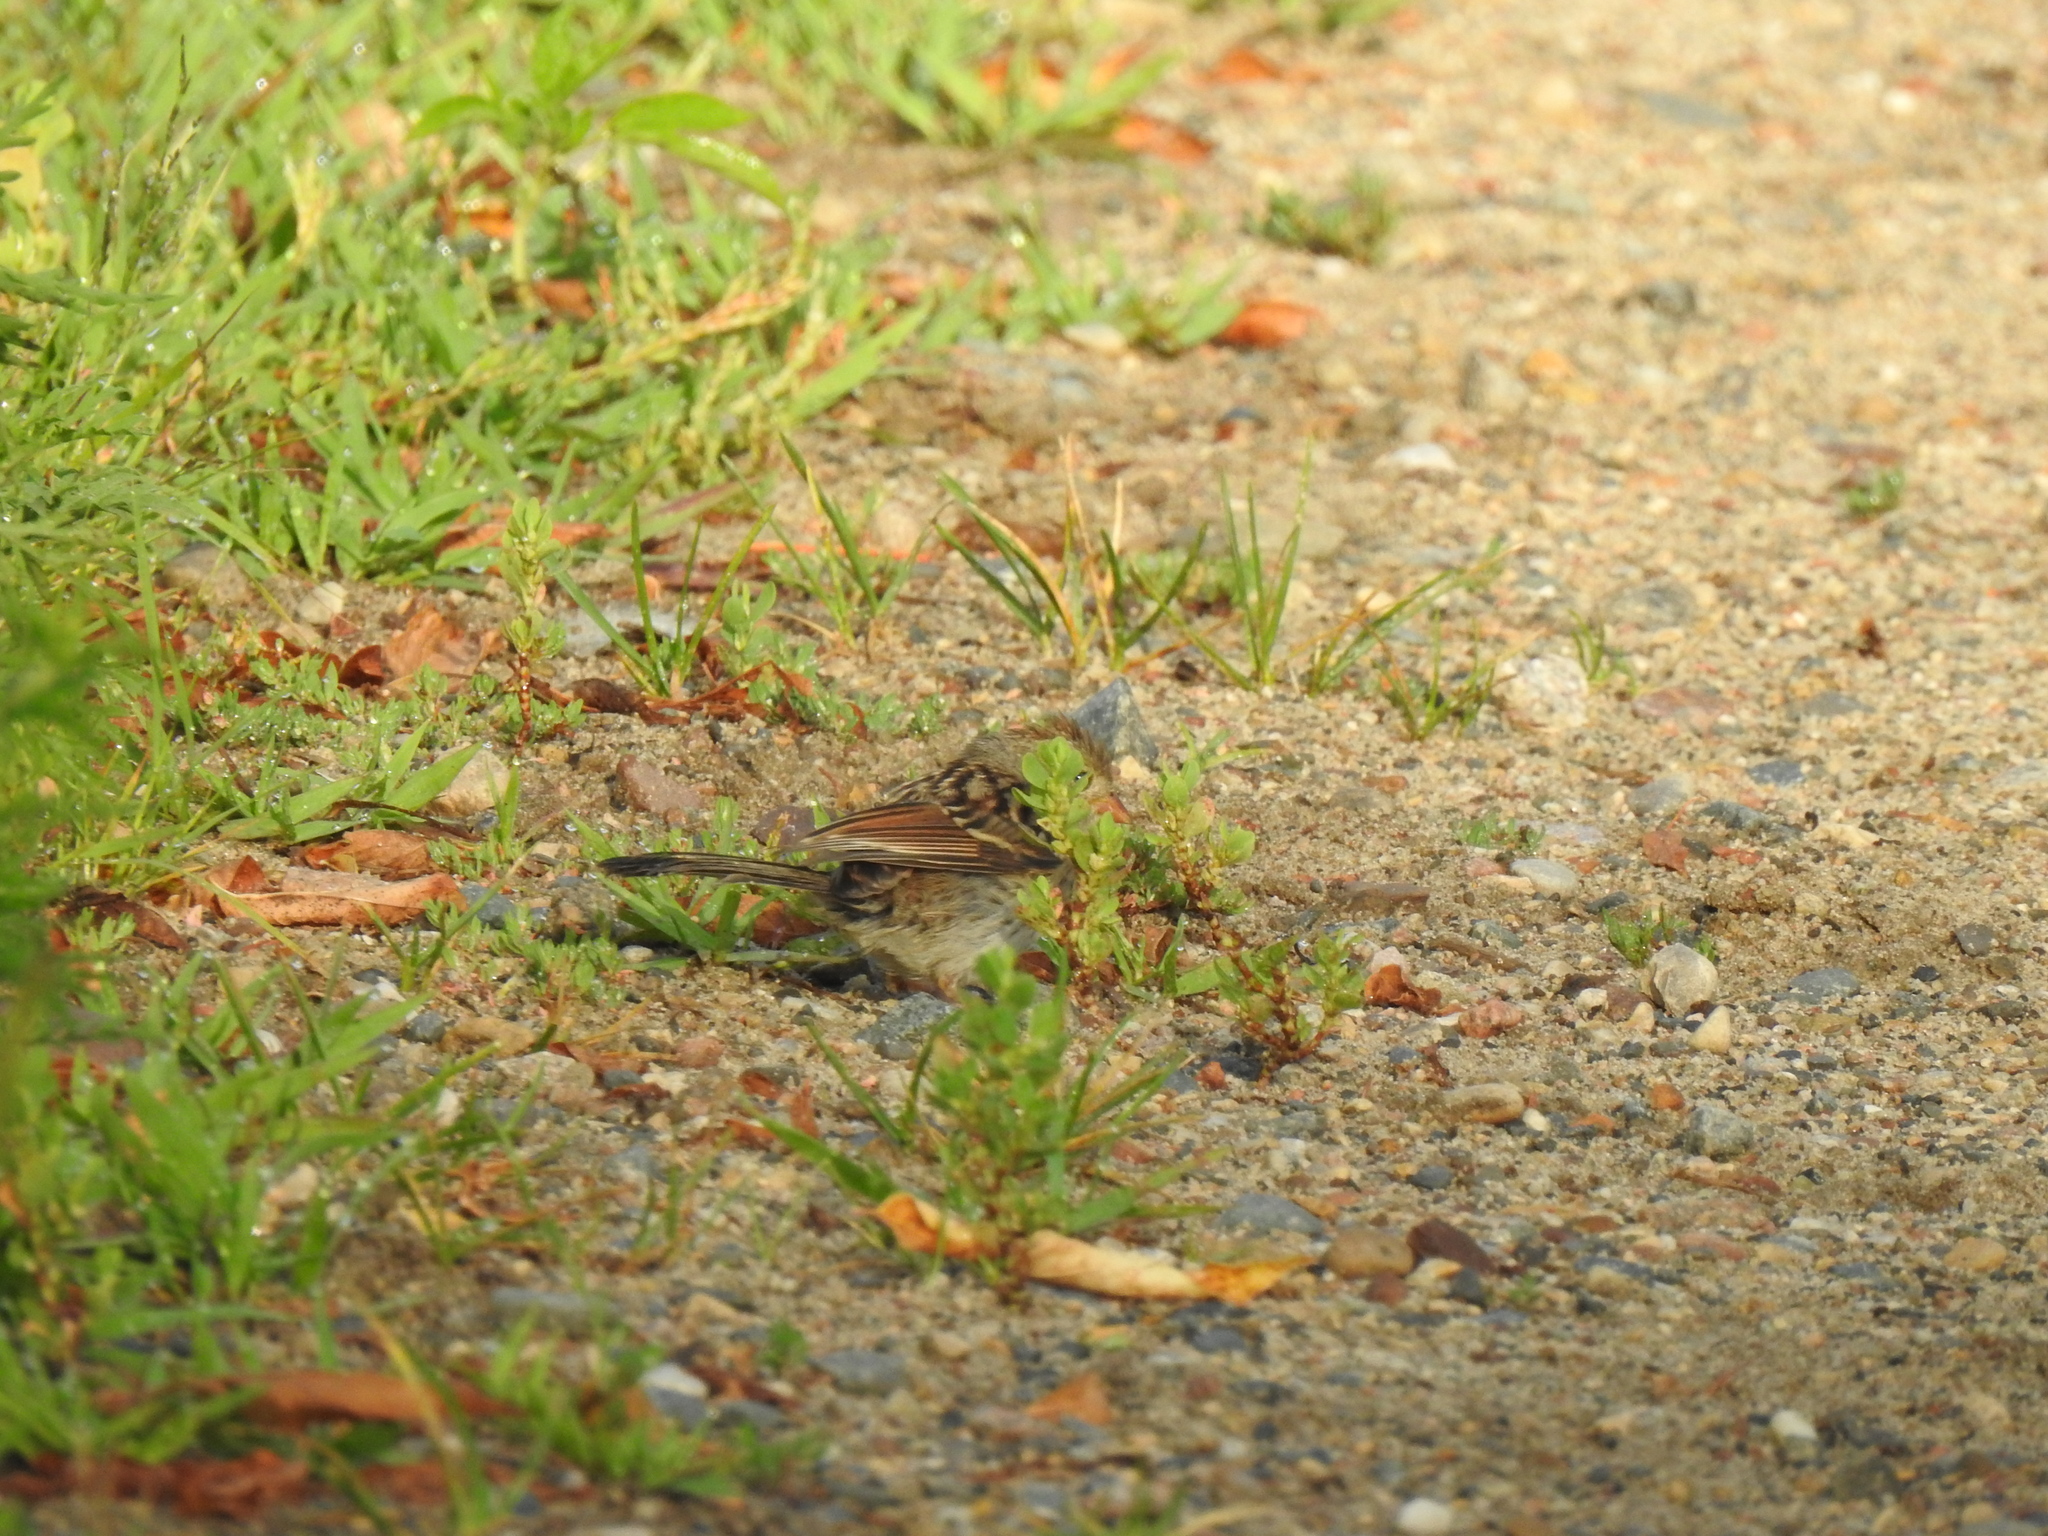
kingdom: Animalia
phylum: Chordata
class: Aves
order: Passeriformes
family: Passerellidae
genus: Spizella
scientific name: Spizella pusilla
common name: Field sparrow
